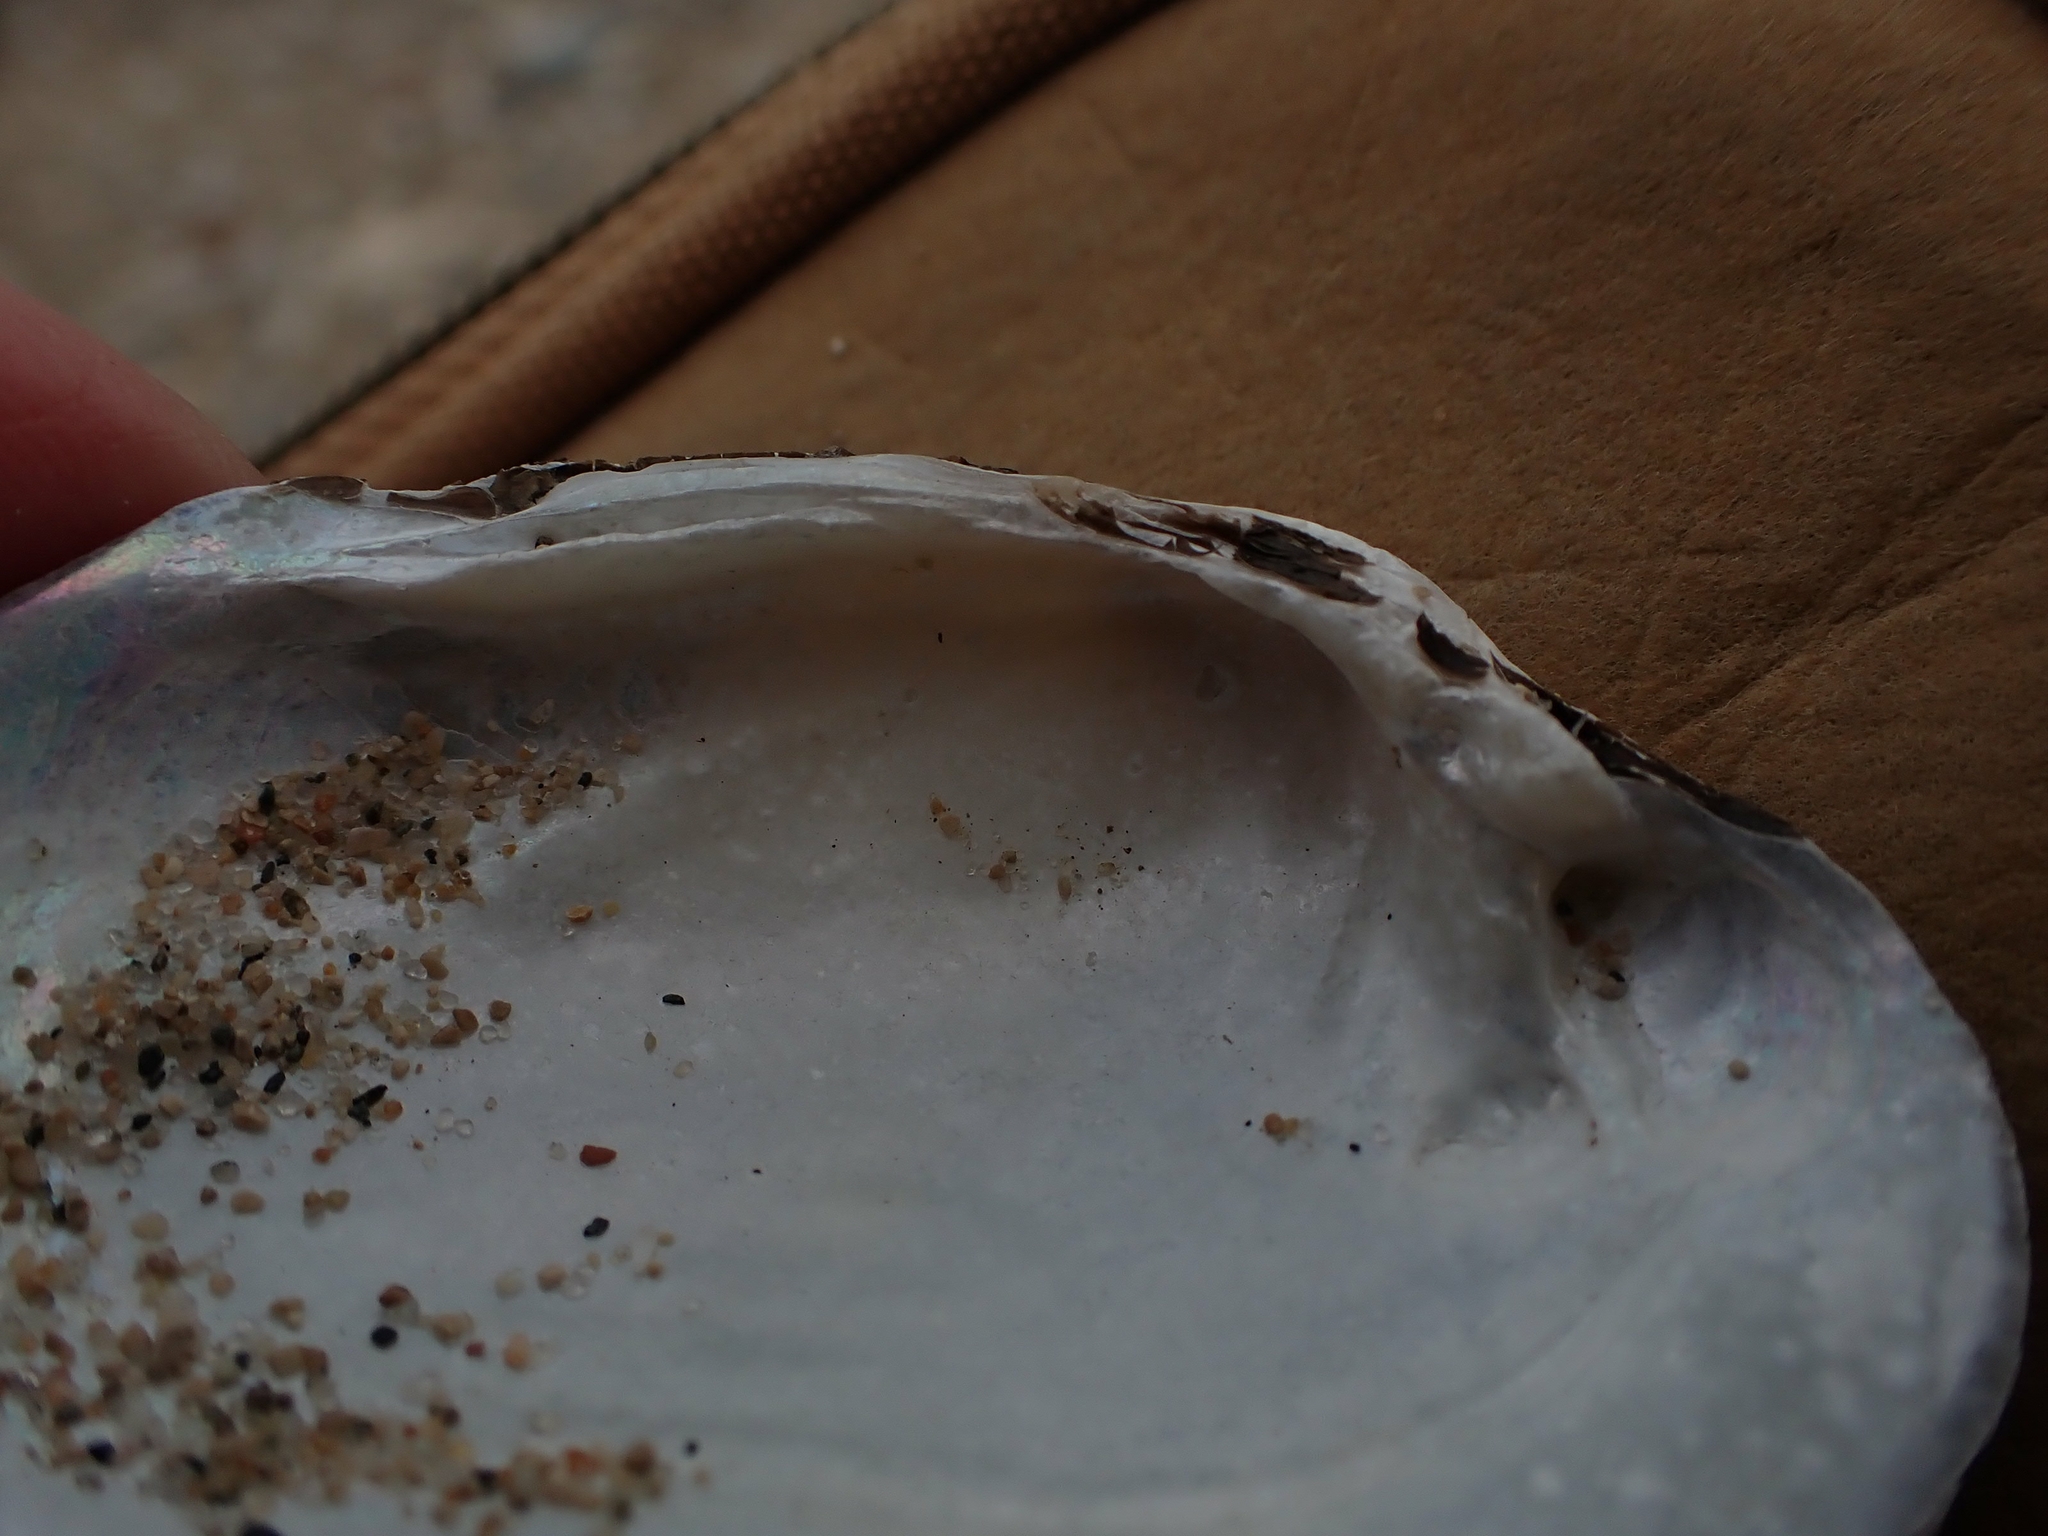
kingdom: Animalia
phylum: Mollusca
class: Bivalvia
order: Unionida
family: Unionidae
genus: Lampsilis
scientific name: Lampsilis siliquoidea
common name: Fatmucket
